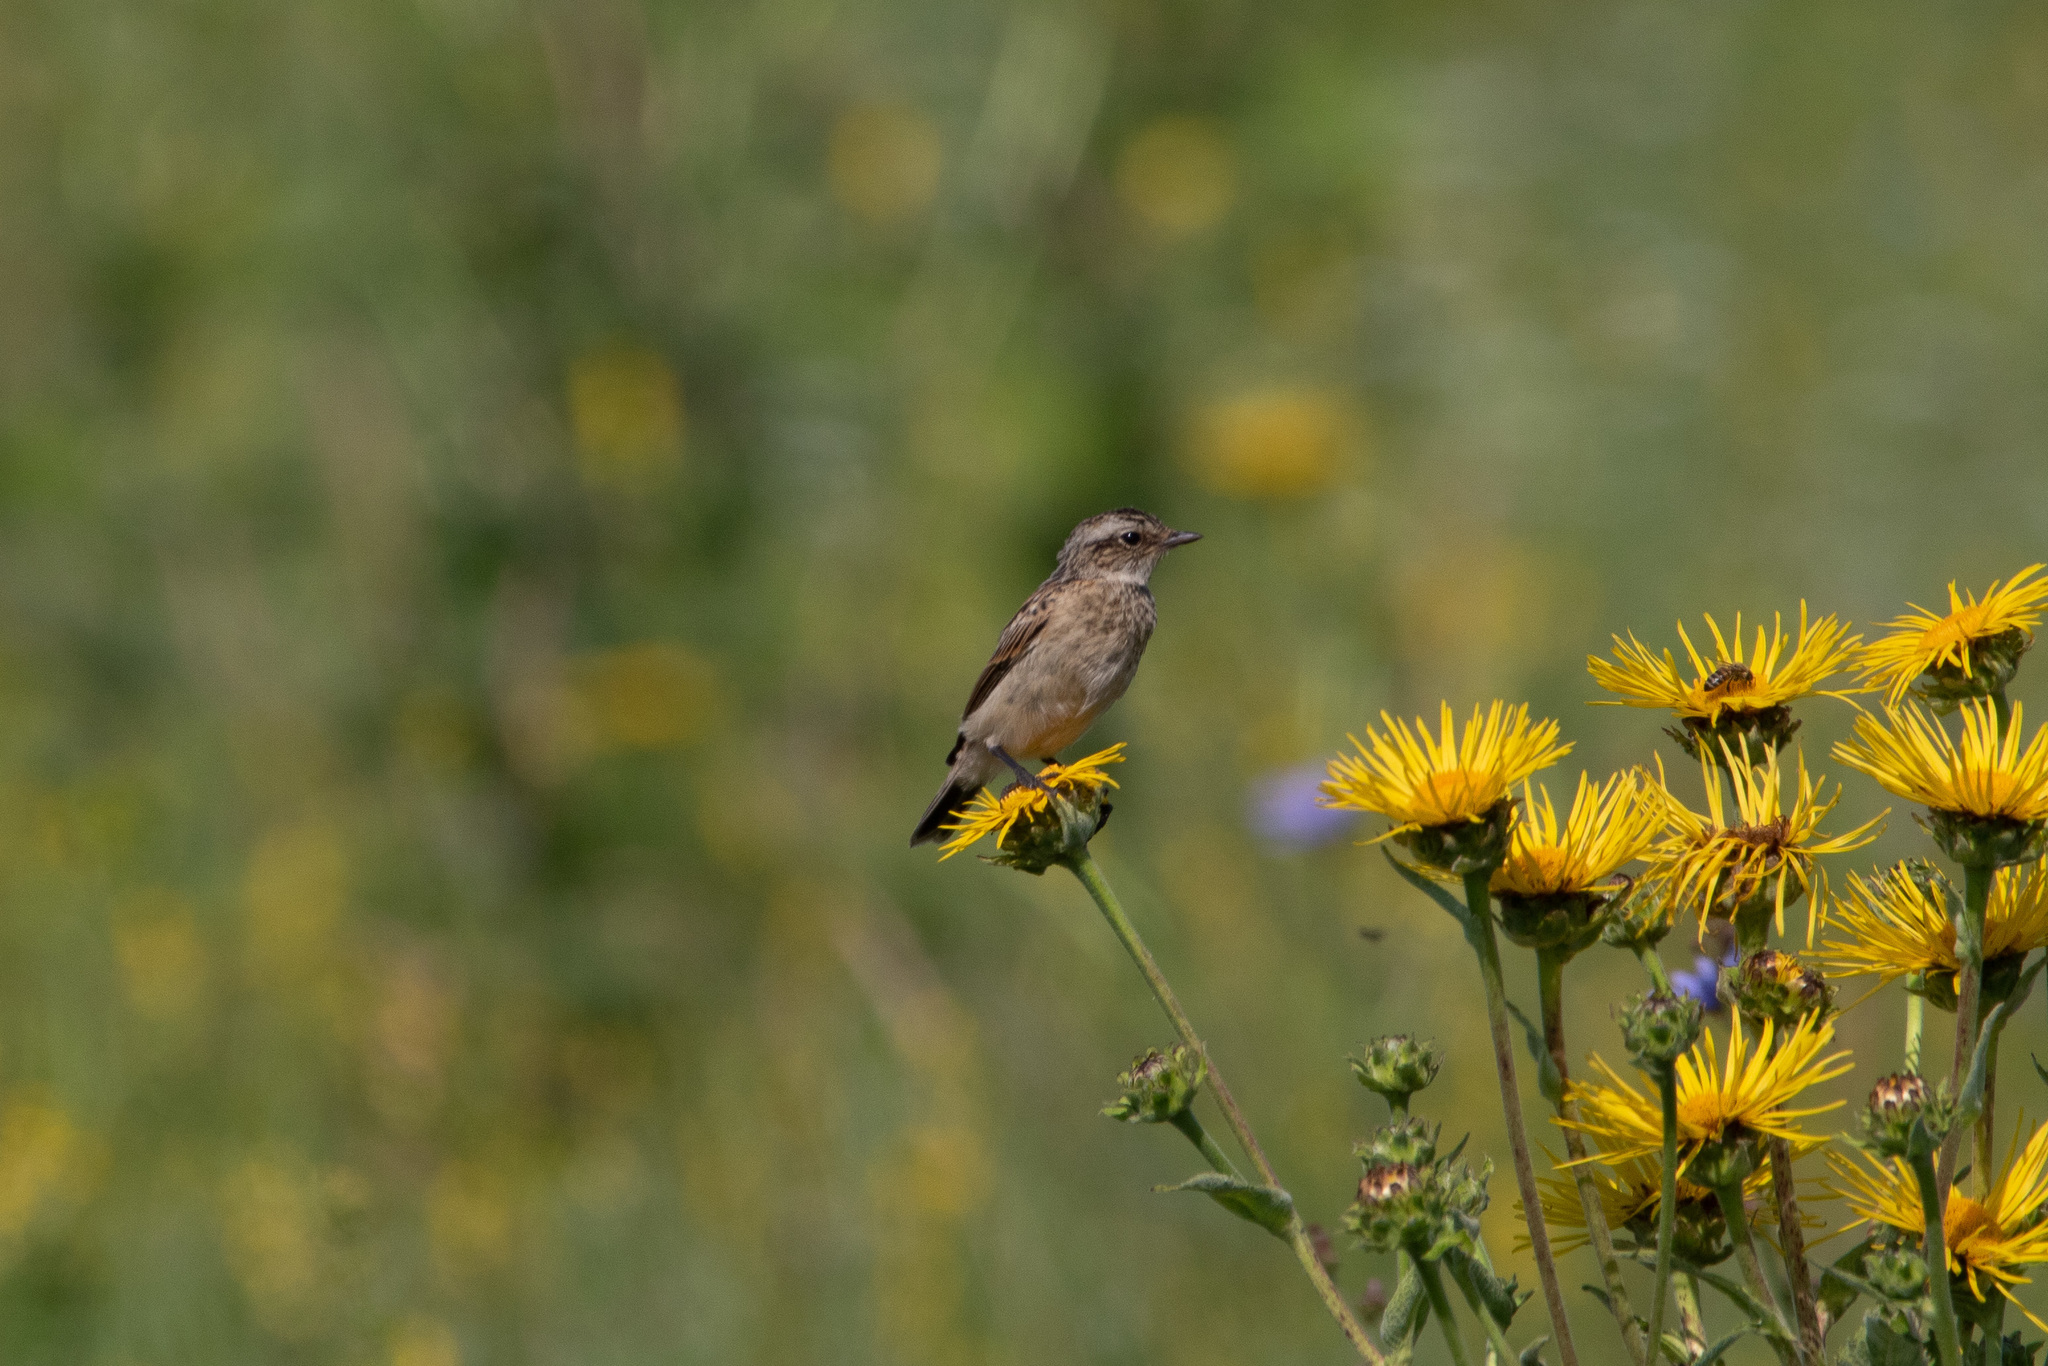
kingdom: Animalia
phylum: Chordata
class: Aves
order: Passeriformes
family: Muscicapidae
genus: Saxicola
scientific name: Saxicola rubetra
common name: Whinchat
